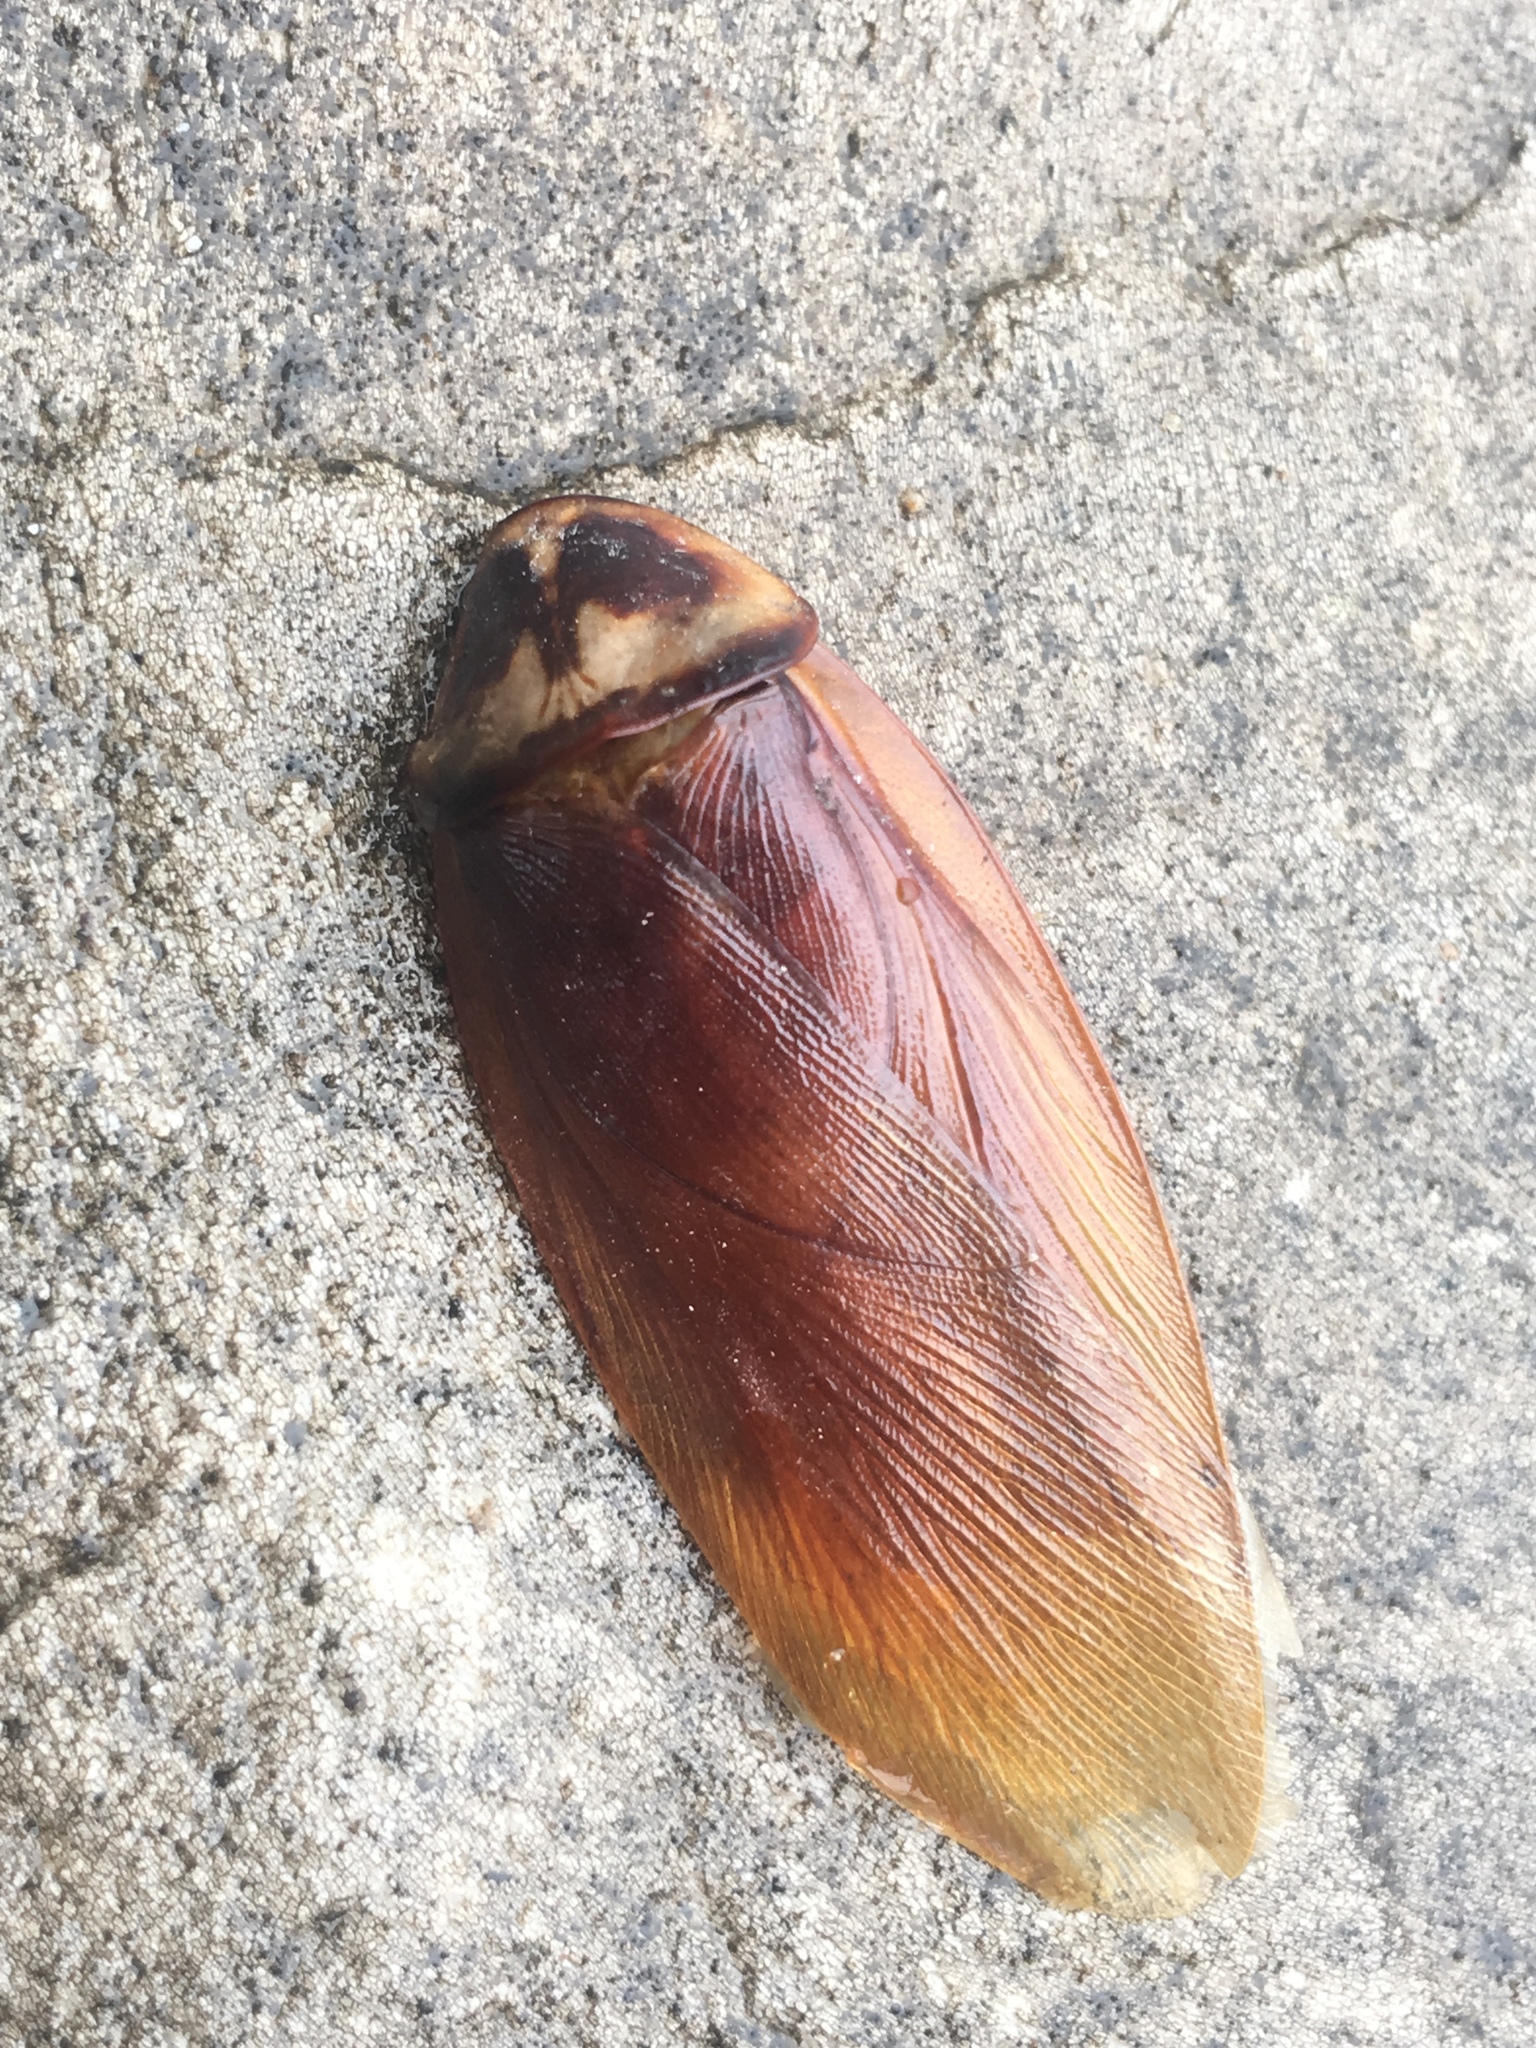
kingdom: Animalia
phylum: Arthropoda
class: Insecta
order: Blattodea
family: Blattidae
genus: Periplaneta
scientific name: Periplaneta americana
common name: American cockroach
